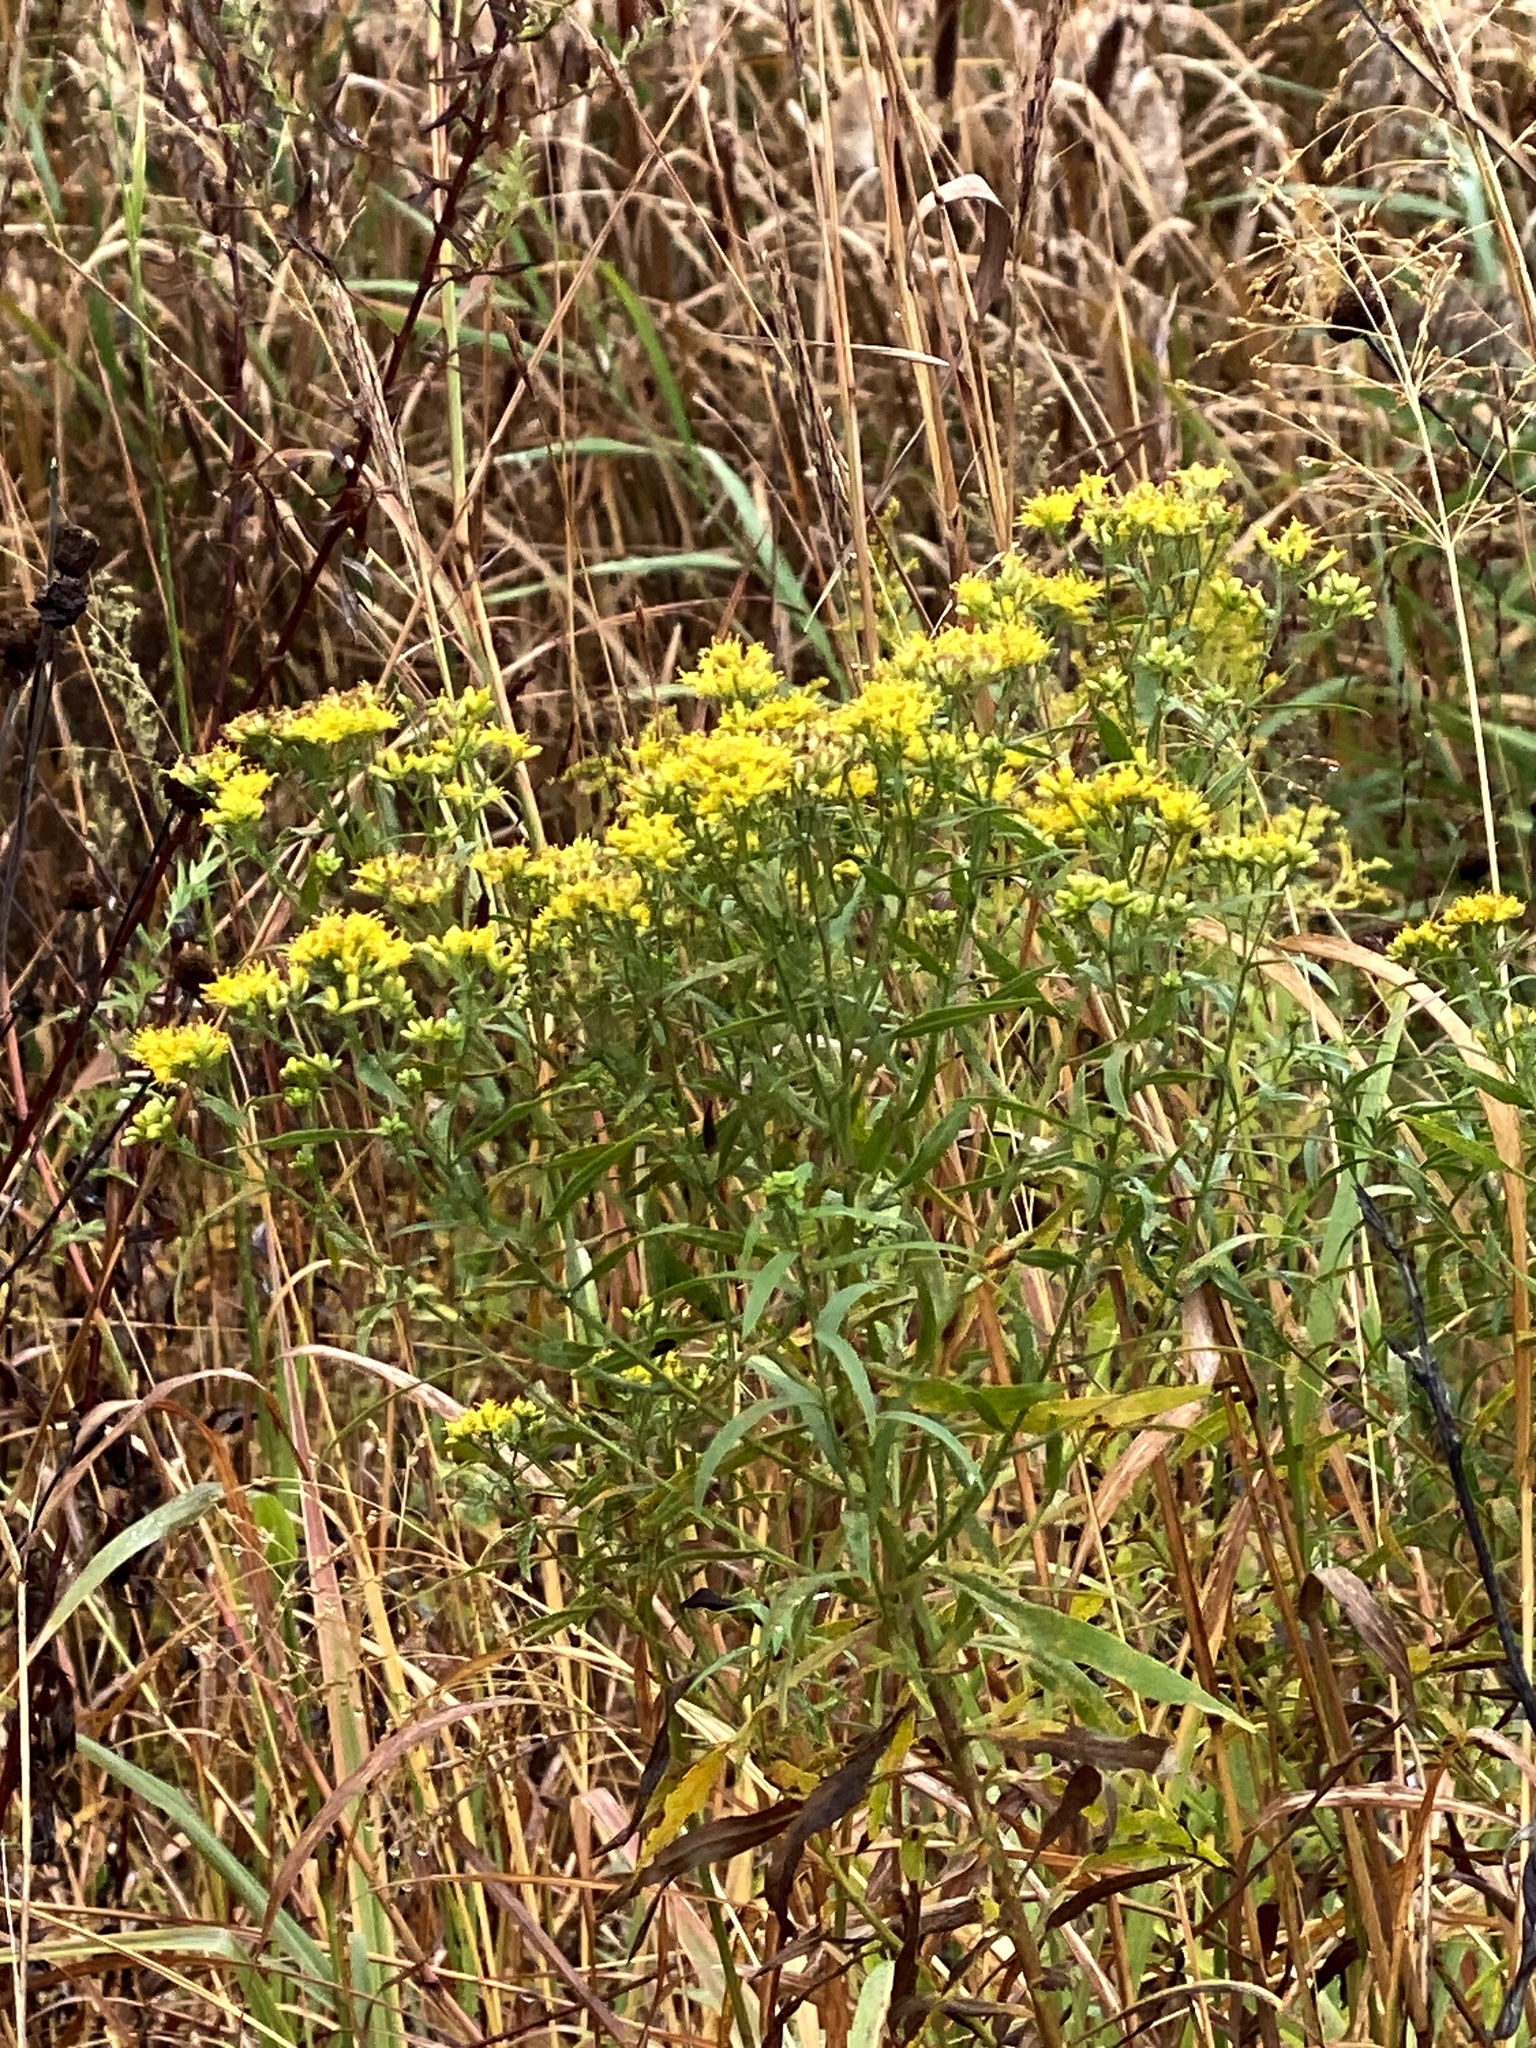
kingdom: Plantae
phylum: Tracheophyta
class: Magnoliopsida
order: Asterales
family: Asteraceae
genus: Euthamia
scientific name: Euthamia graminifolia
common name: Common goldentop
